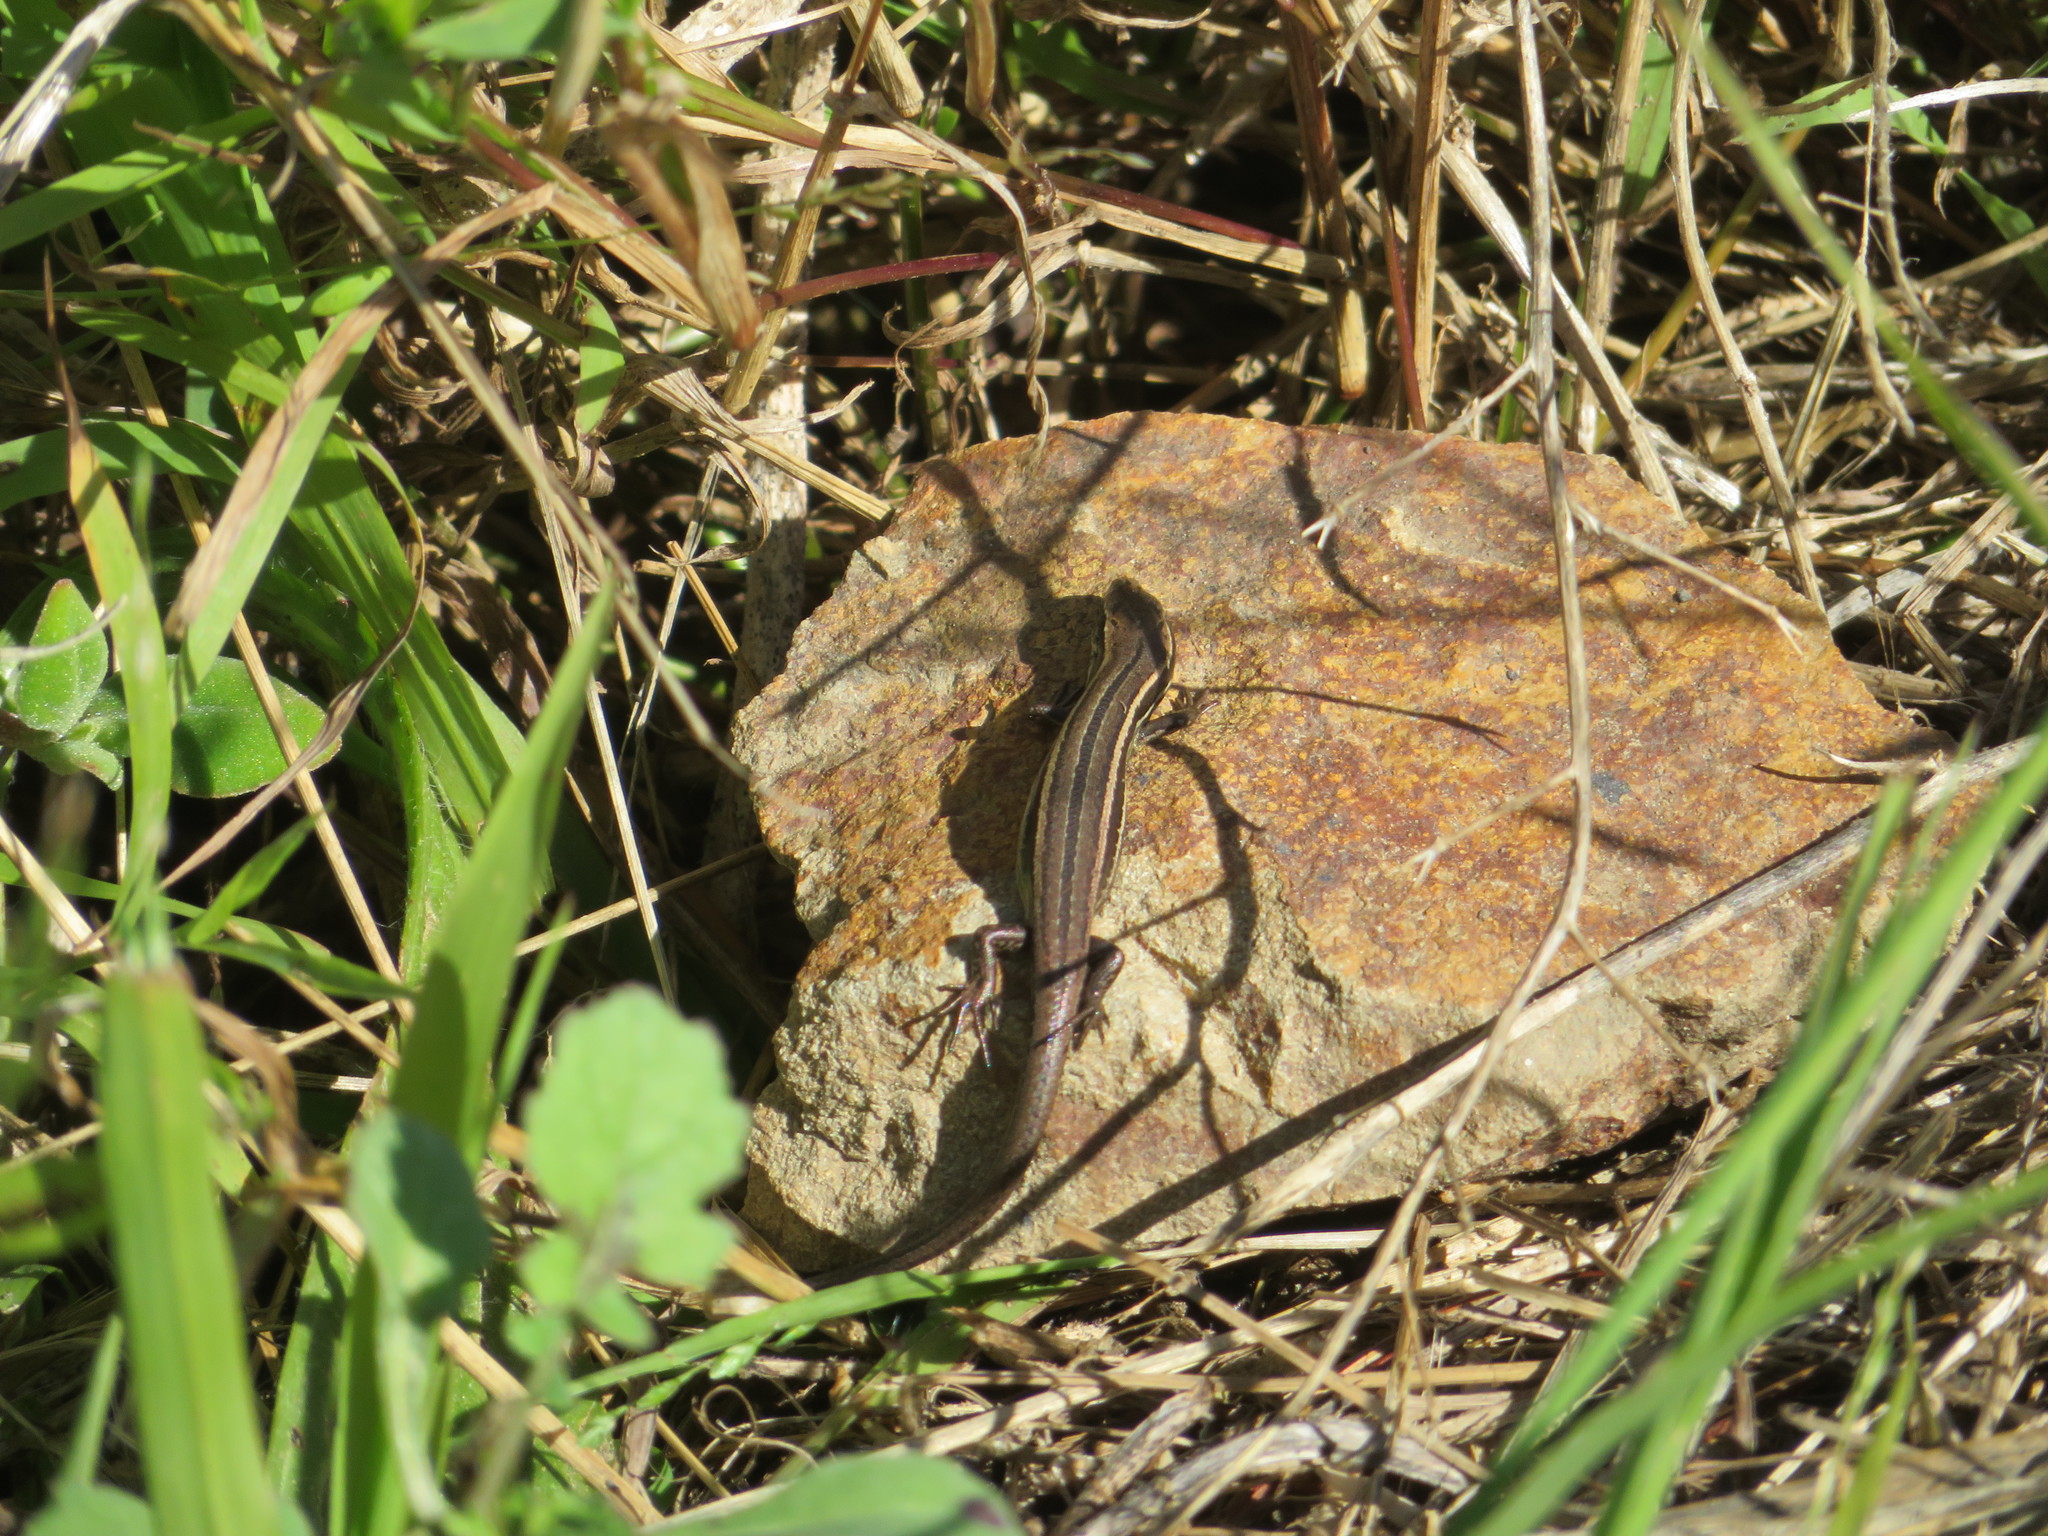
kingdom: Animalia
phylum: Chordata
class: Squamata
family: Scincidae
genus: Oligosoma
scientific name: Oligosoma polychroma
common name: Common new zealand skink
